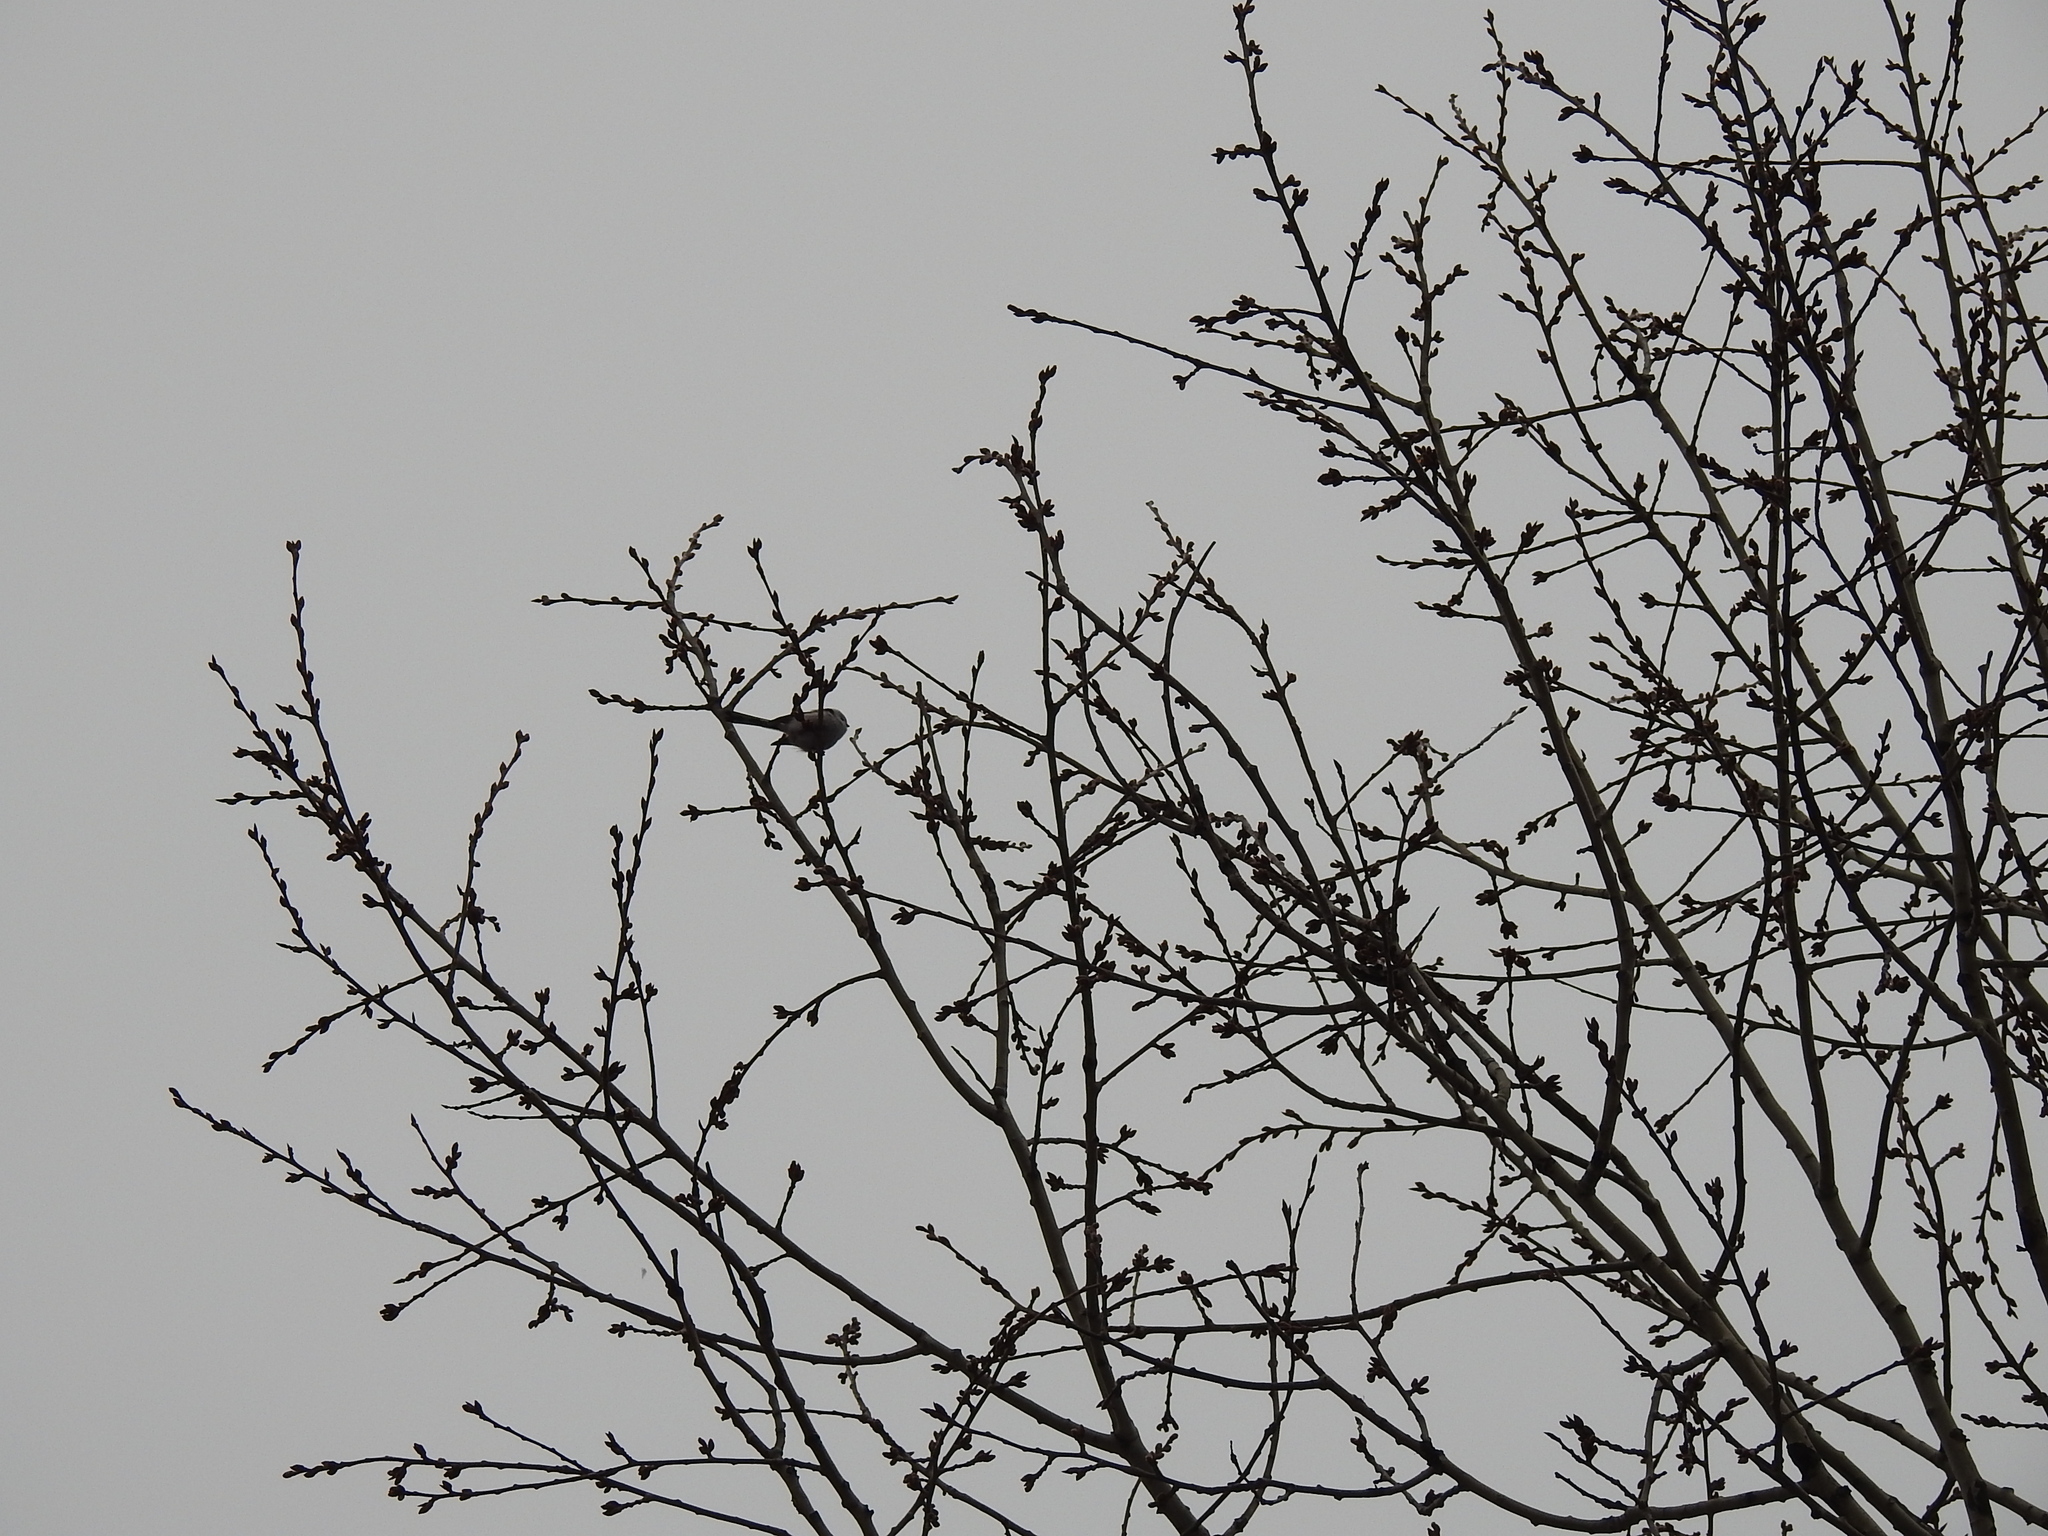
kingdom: Animalia
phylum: Chordata
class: Aves
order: Passeriformes
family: Aegithalidae
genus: Aegithalos
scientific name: Aegithalos caudatus
